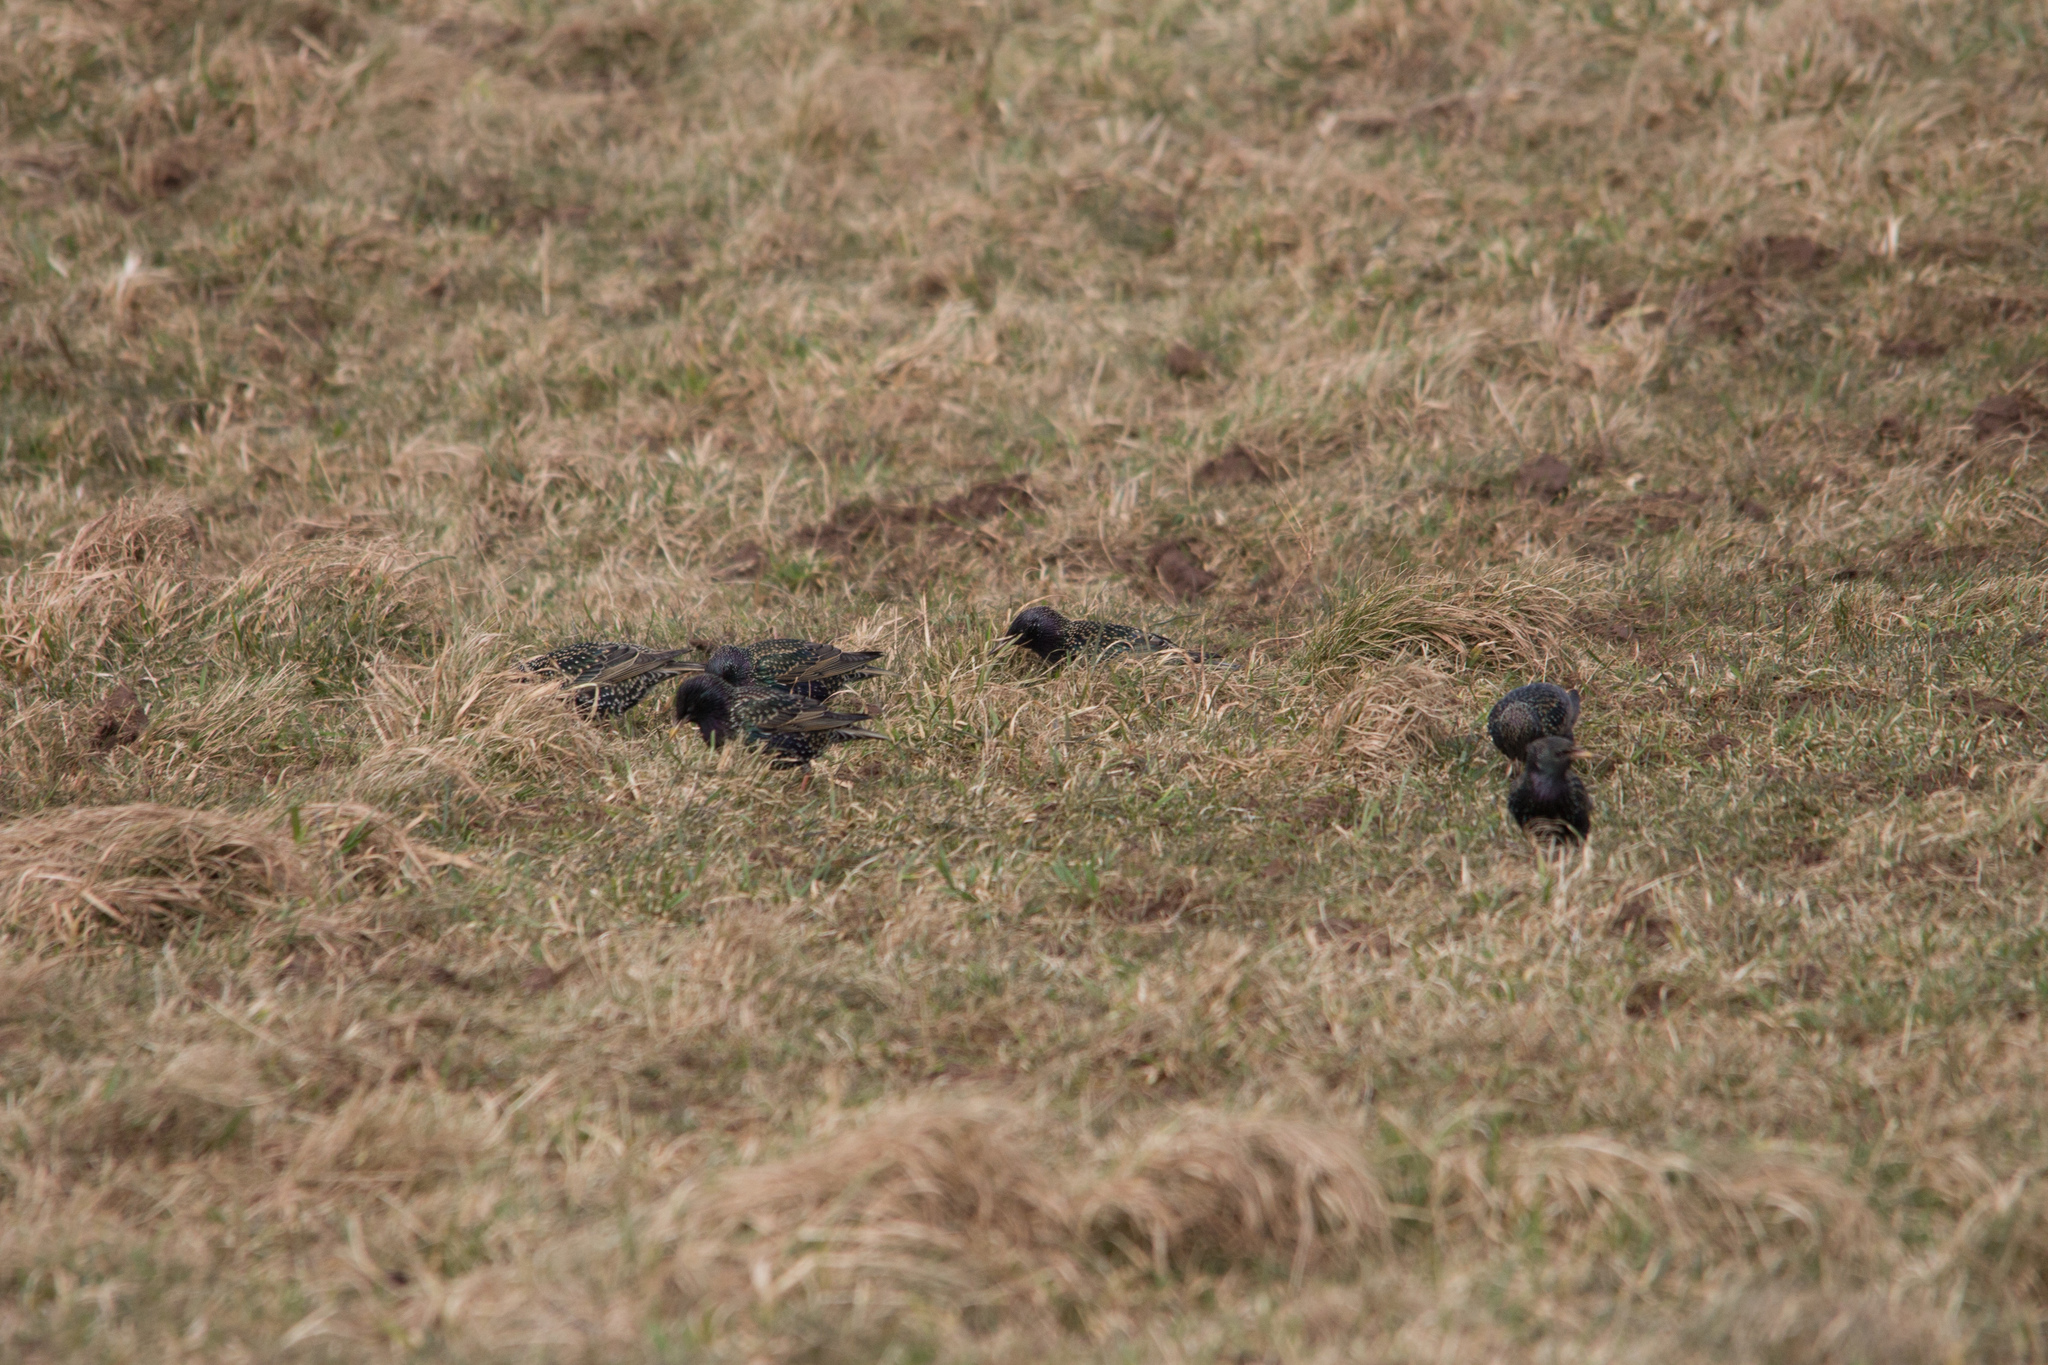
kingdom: Animalia
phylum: Chordata
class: Aves
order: Passeriformes
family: Sturnidae
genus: Sturnus
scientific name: Sturnus vulgaris
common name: Common starling
